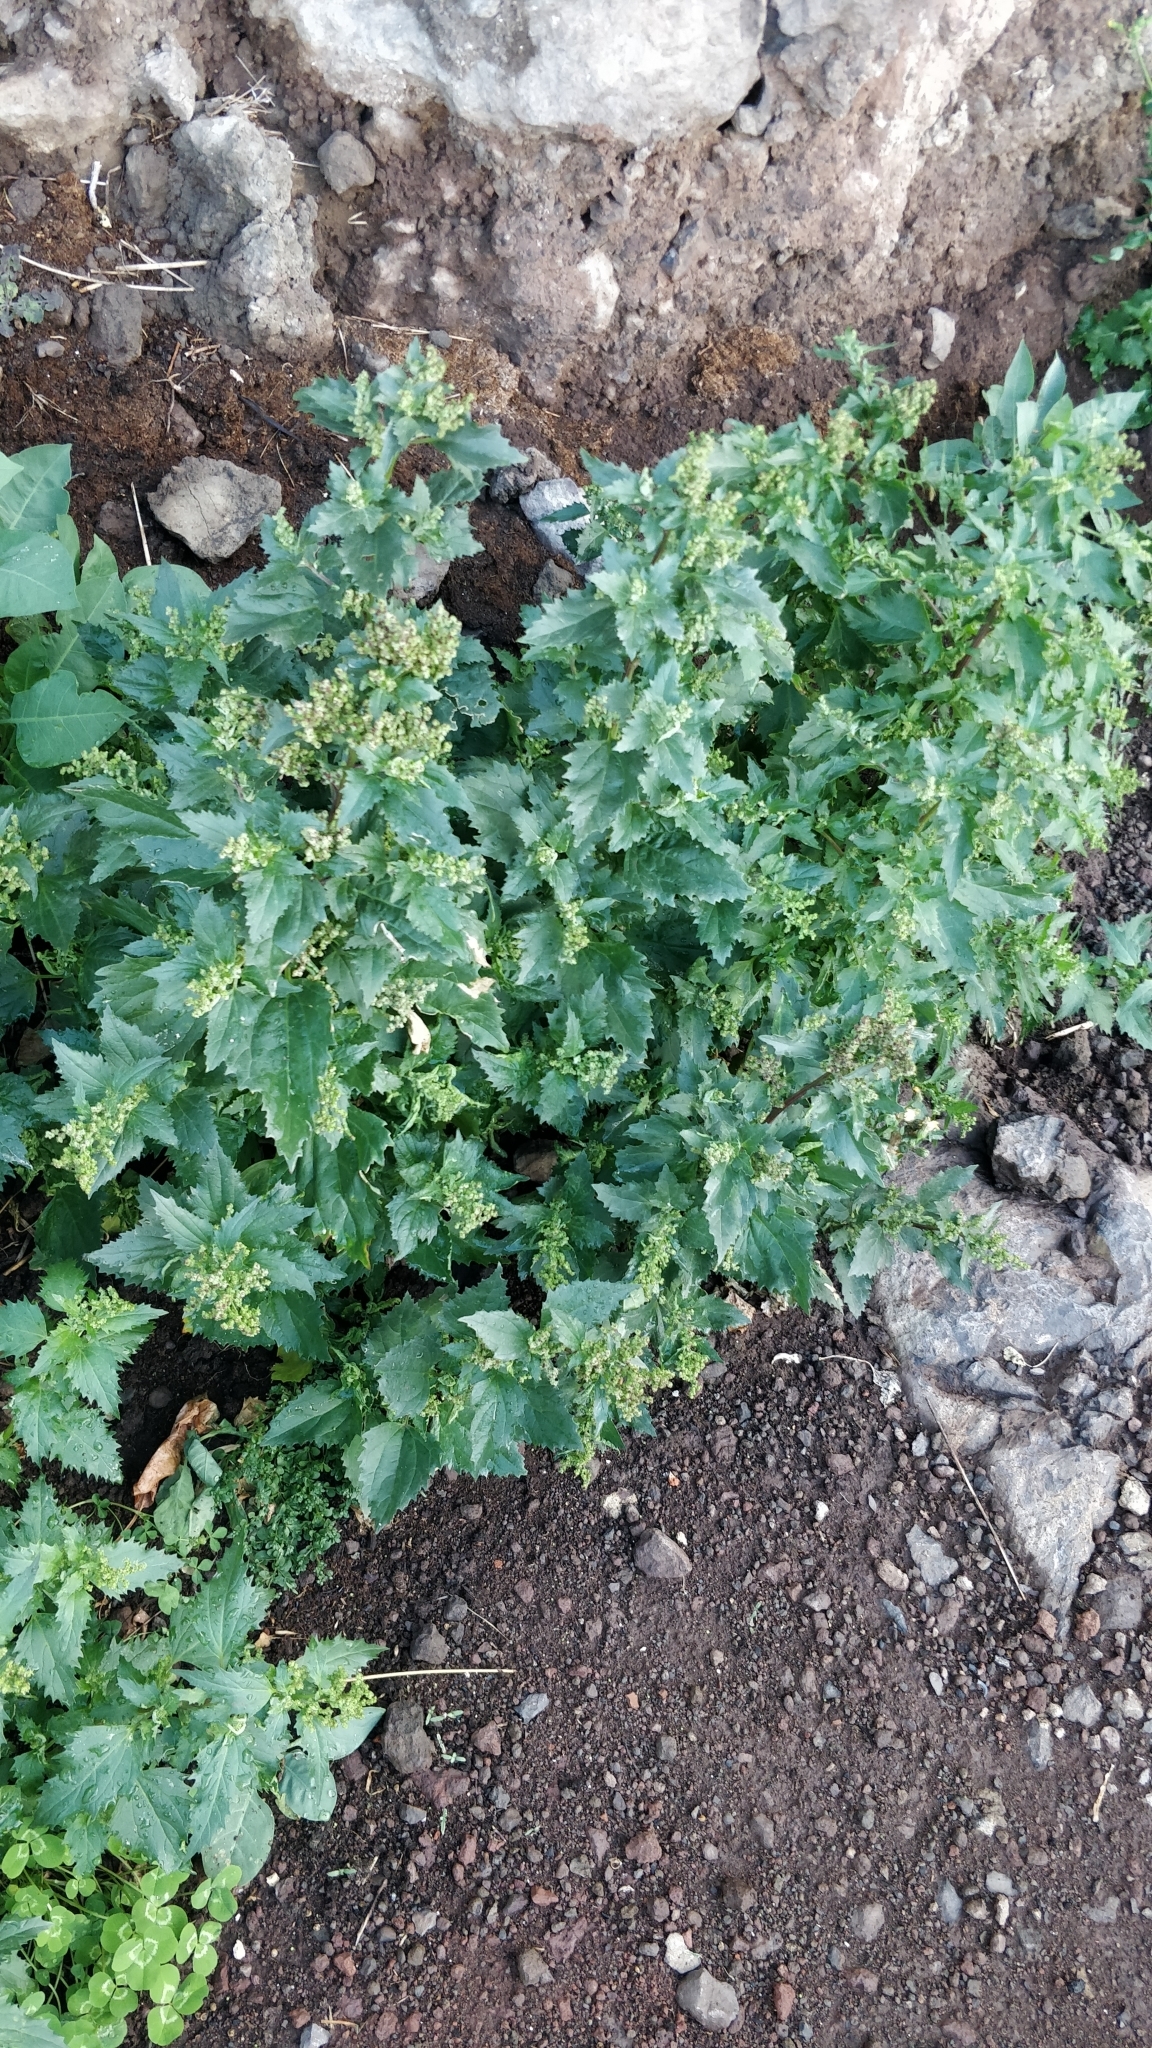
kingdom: Plantae
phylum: Tracheophyta
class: Magnoliopsida
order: Caryophyllales
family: Amaranthaceae
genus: Chenopodiastrum
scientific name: Chenopodiastrum murale
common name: Sowbane
